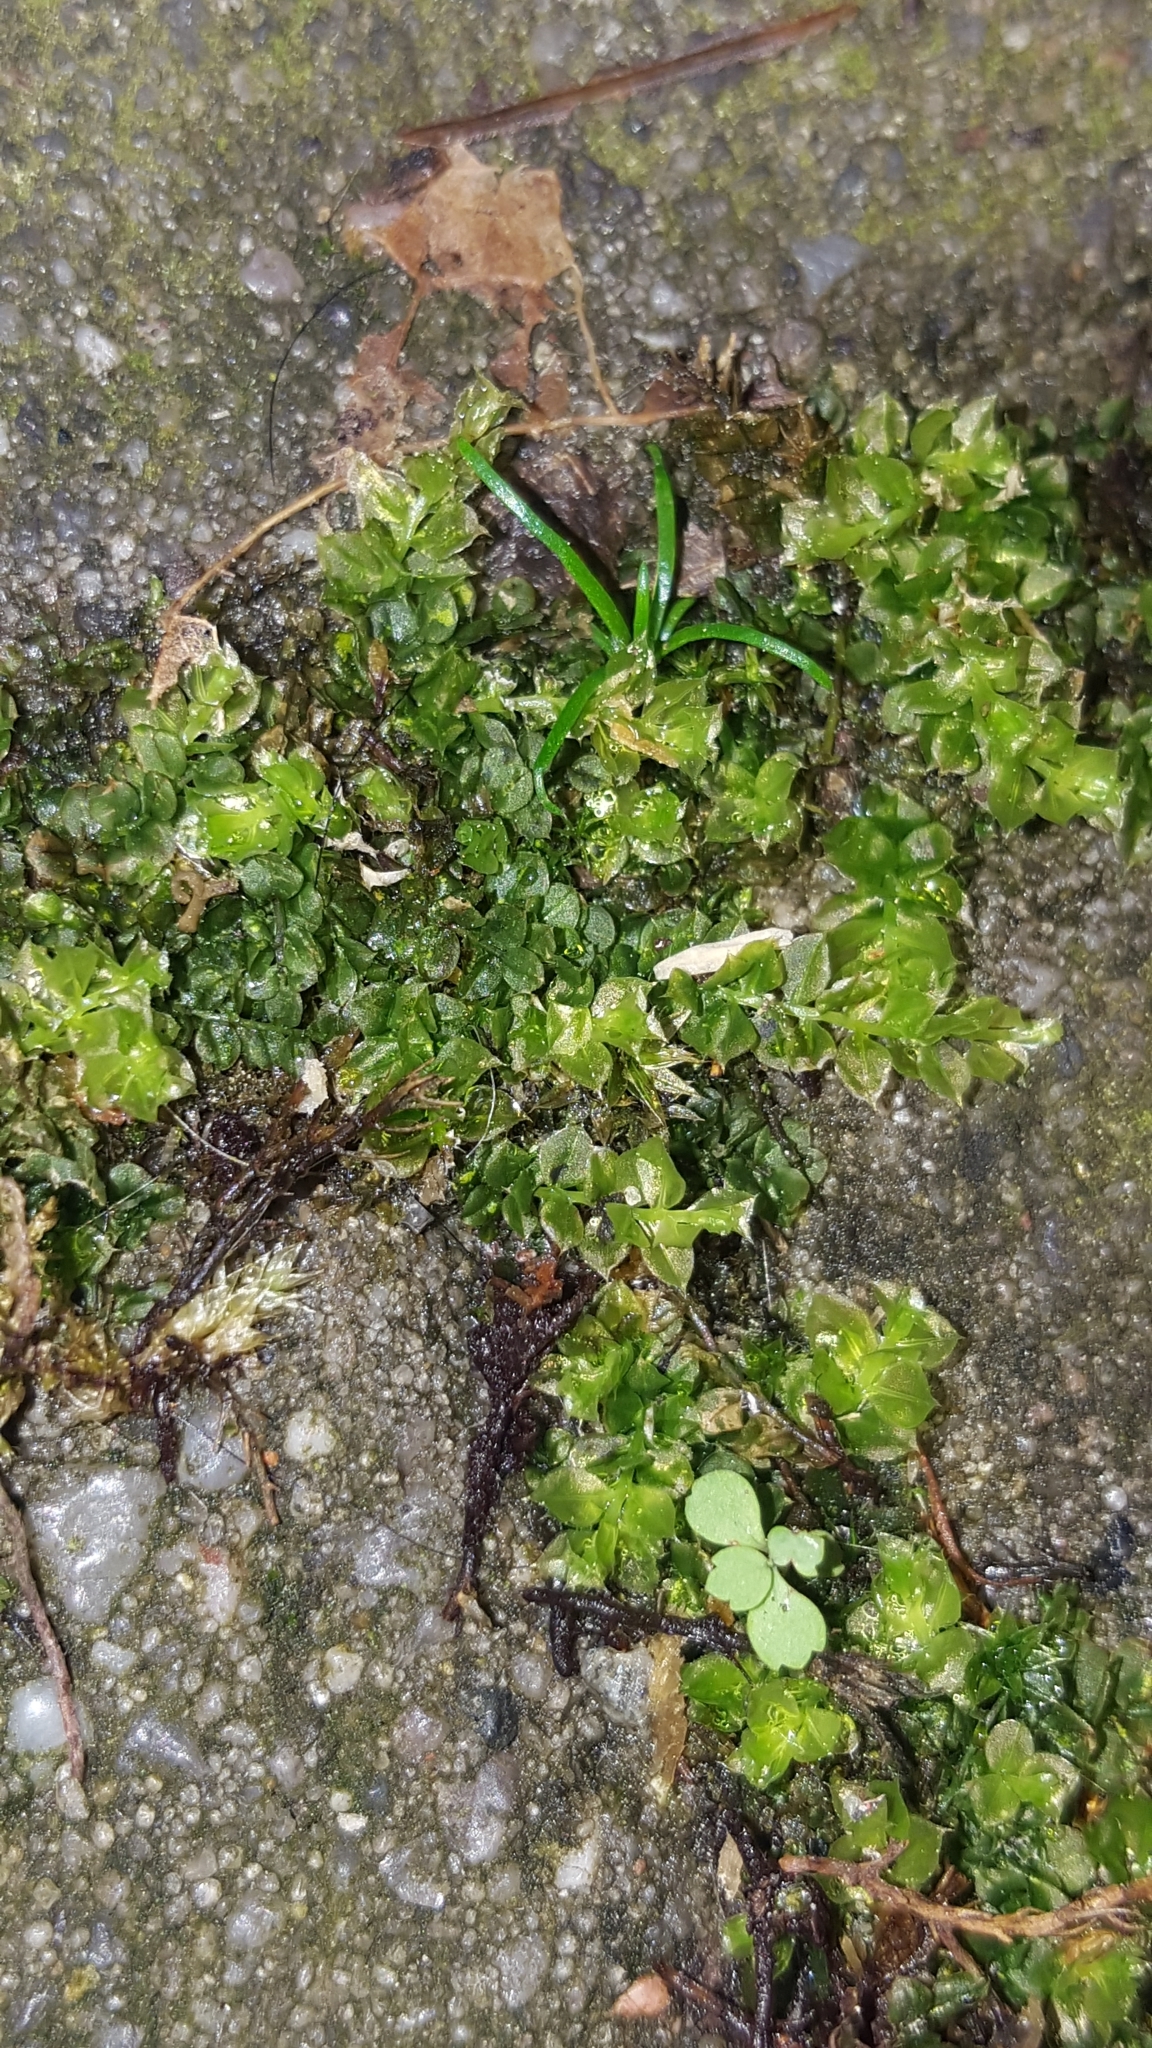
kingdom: Plantae
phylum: Bryophyta
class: Bryopsida
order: Bryales
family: Mniaceae
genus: Plagiomnium
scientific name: Plagiomnium cuspidatum
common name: Woodsy leafy moss
